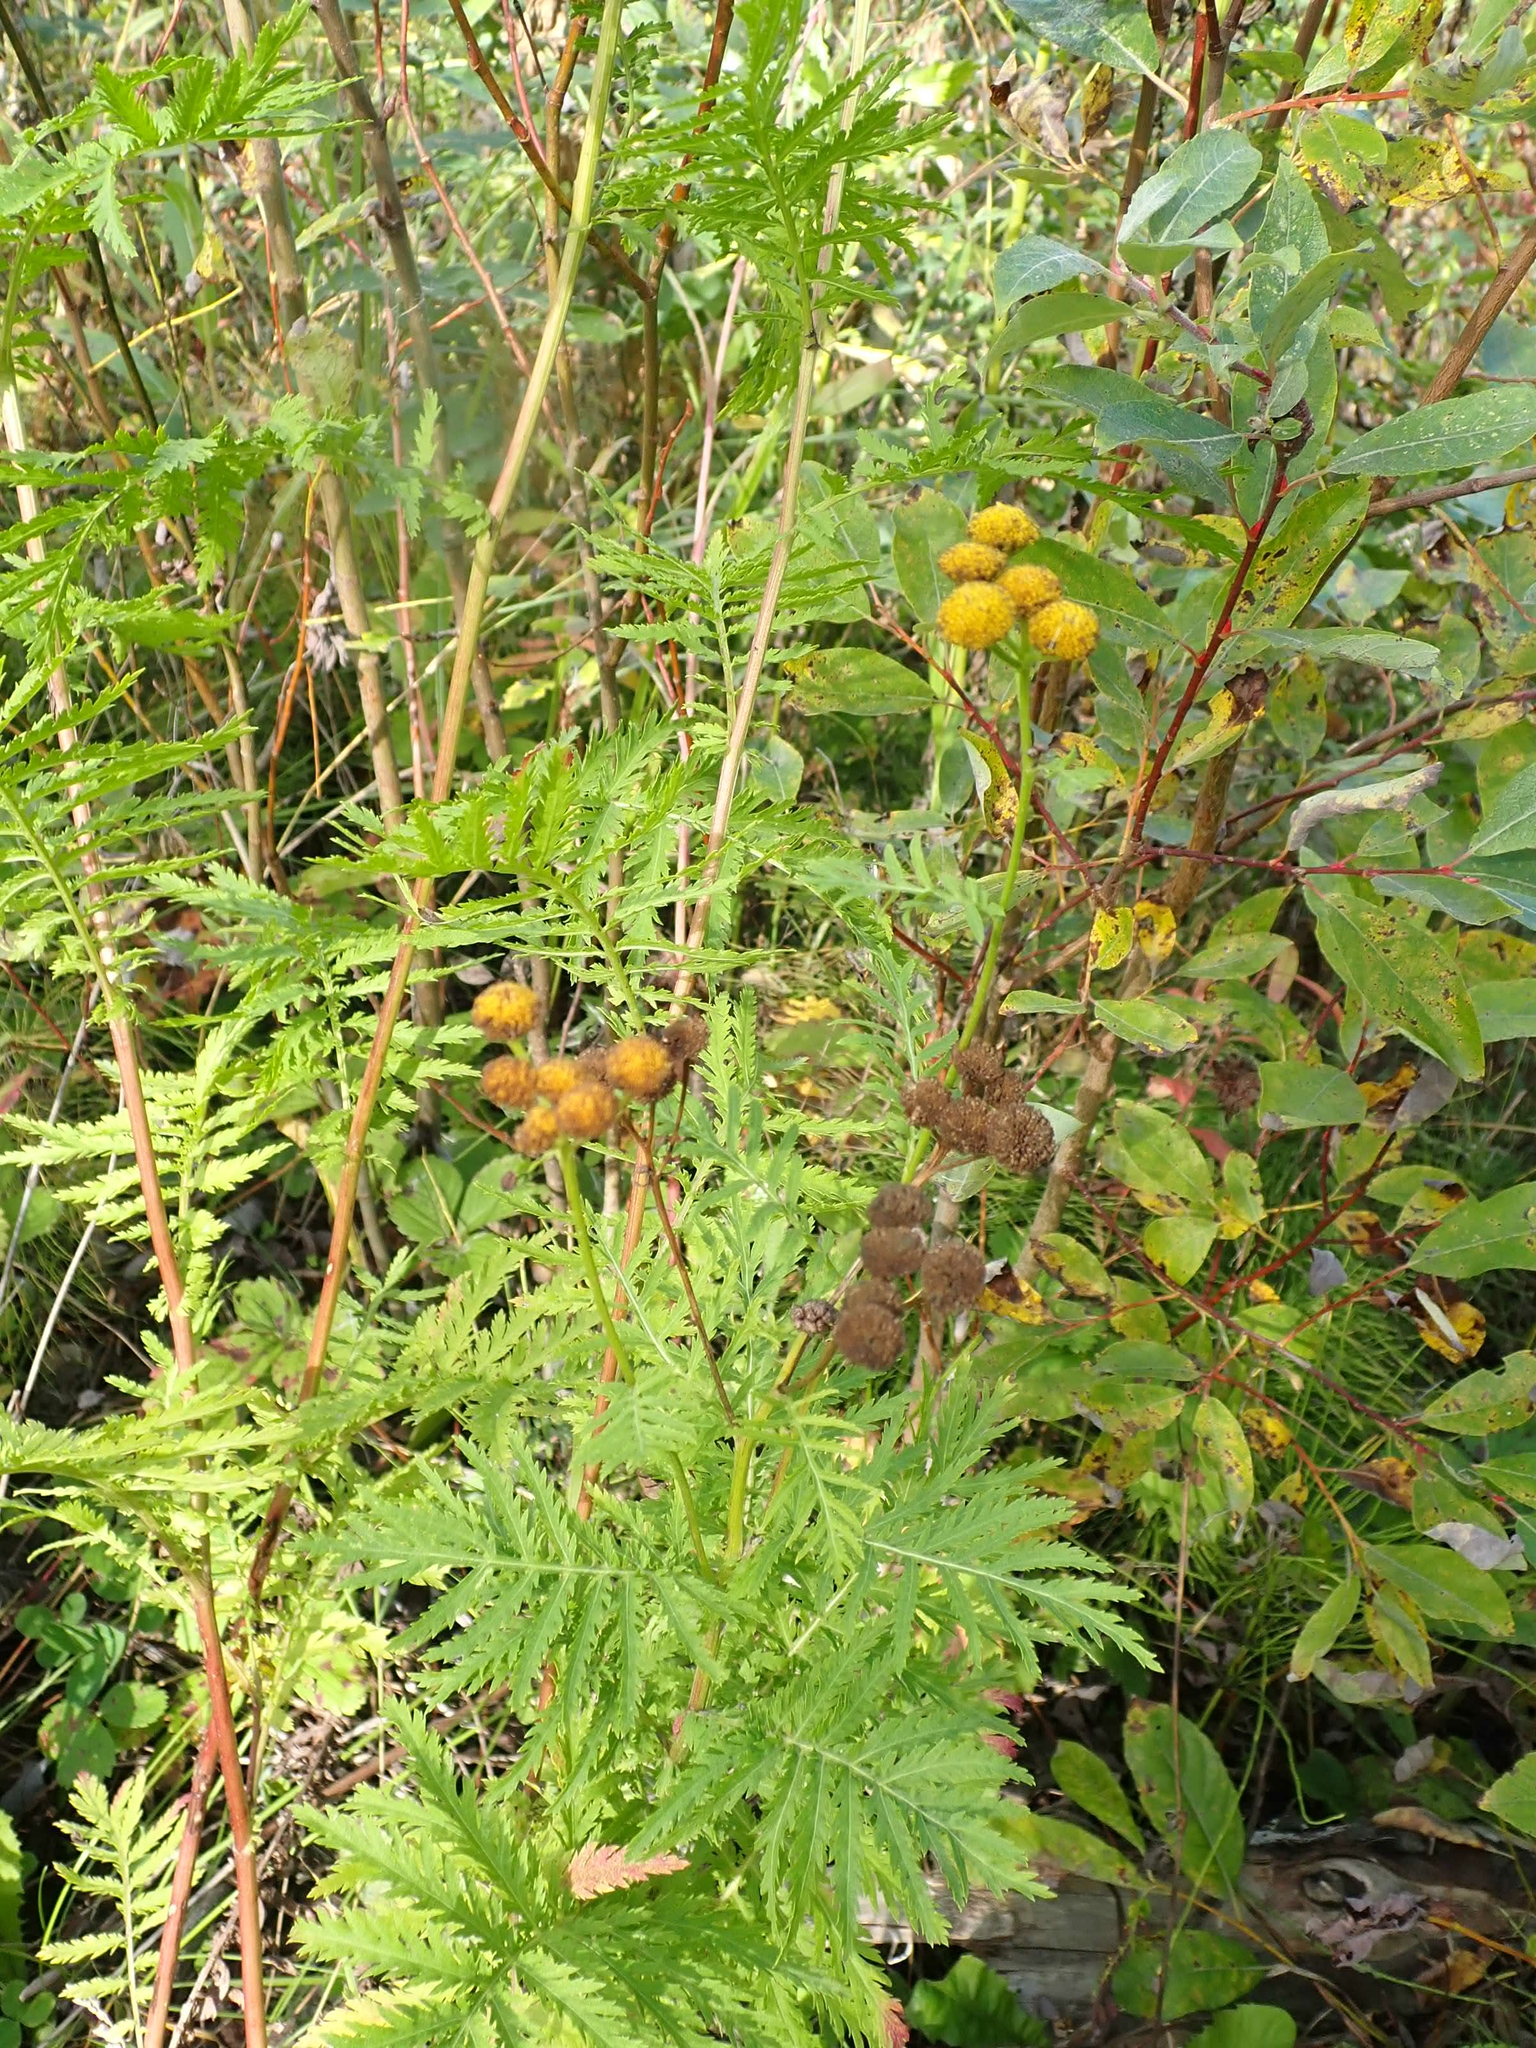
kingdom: Plantae
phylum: Tracheophyta
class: Magnoliopsida
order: Asterales
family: Asteraceae
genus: Tanacetum
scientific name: Tanacetum vulgare
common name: Common tansy
